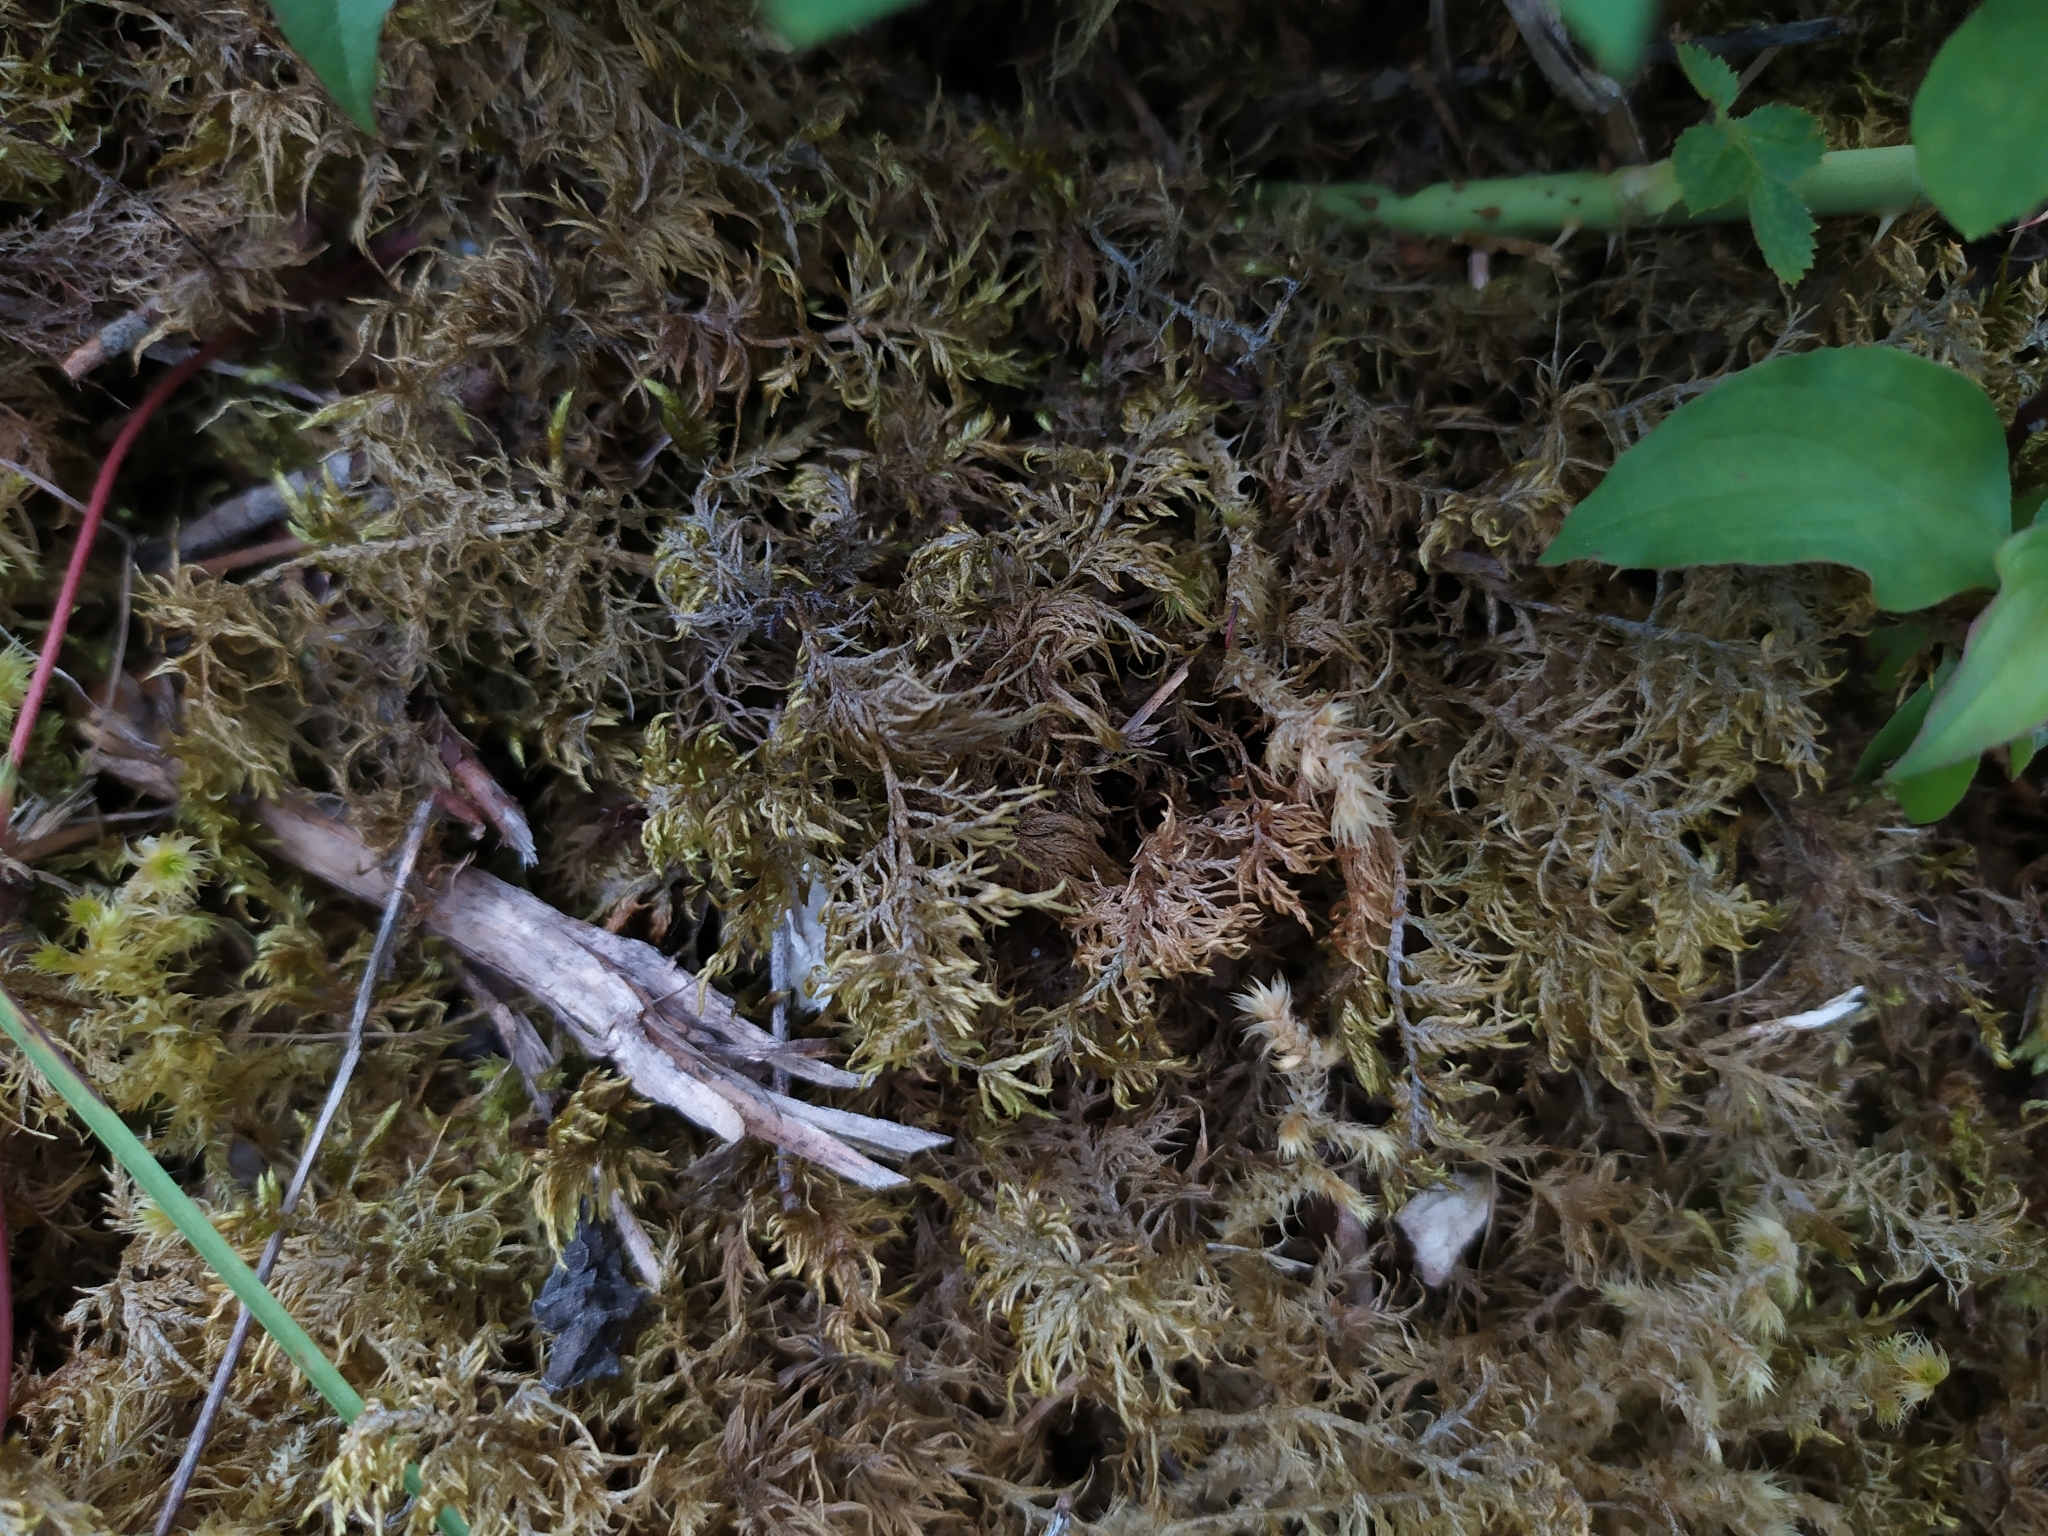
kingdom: Plantae
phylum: Bryophyta
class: Bryopsida
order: Hypnales
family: Hylocomiaceae
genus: Hylocomium
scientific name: Hylocomium splendens
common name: Stairstep moss
